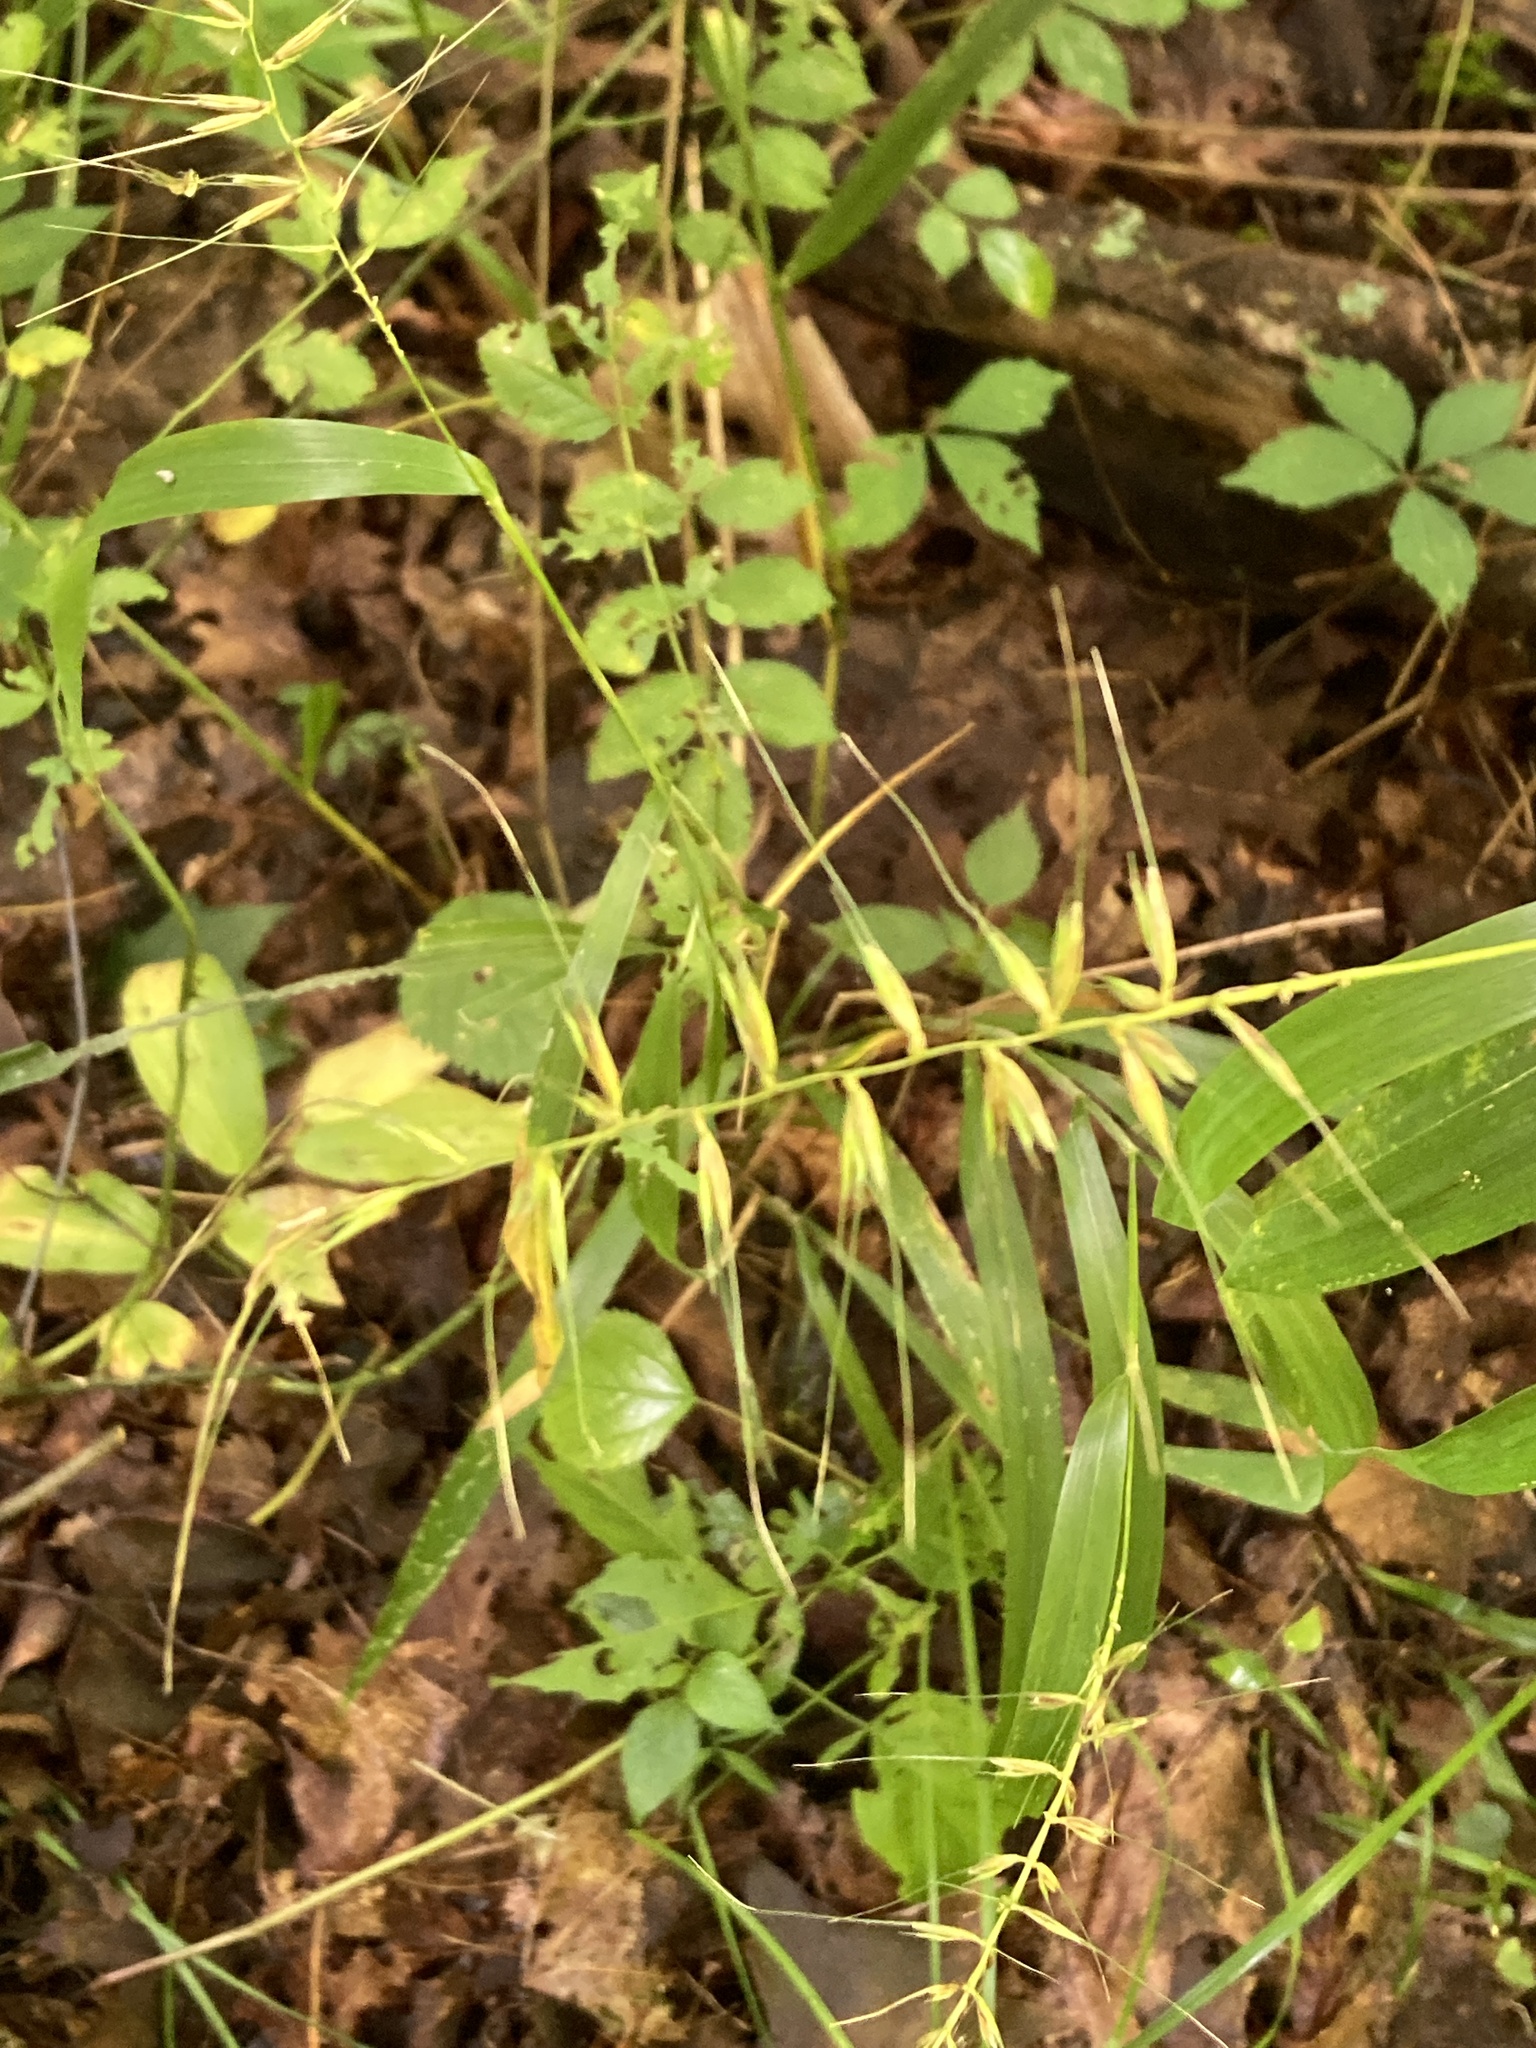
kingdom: Plantae
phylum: Tracheophyta
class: Liliopsida
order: Poales
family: Poaceae
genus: Elymus
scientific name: Elymus hystrix
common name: Bottlebrush grass
